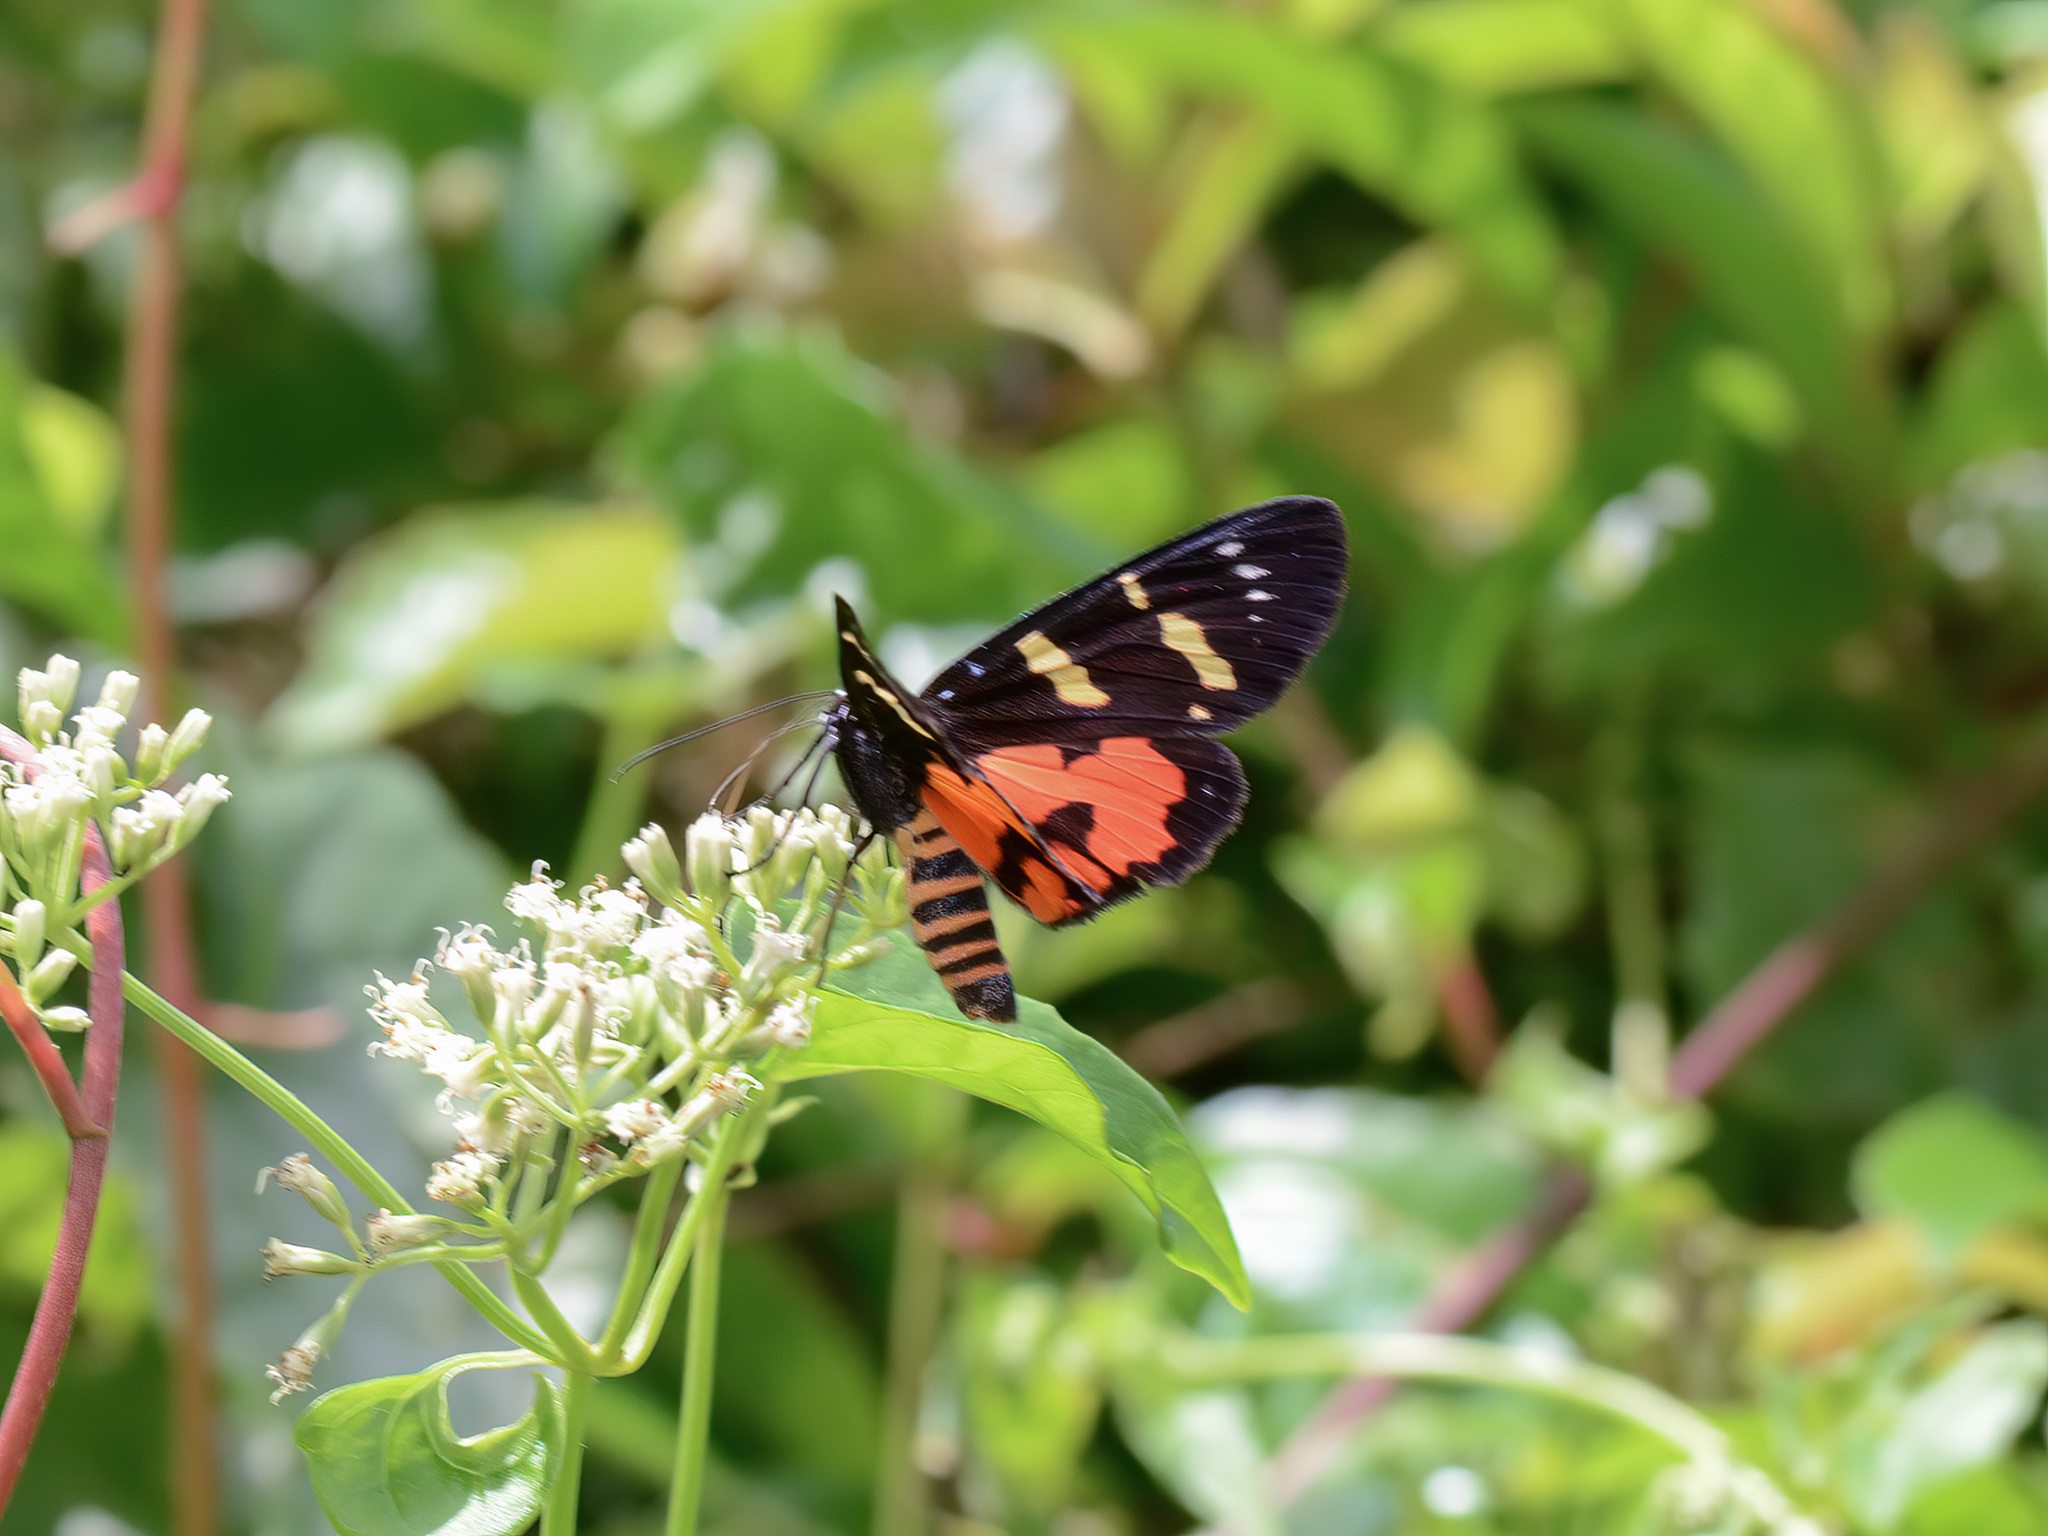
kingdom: Animalia
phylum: Arthropoda
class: Insecta
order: Lepidoptera
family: Noctuidae
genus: Episteme
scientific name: Episteme vetula
